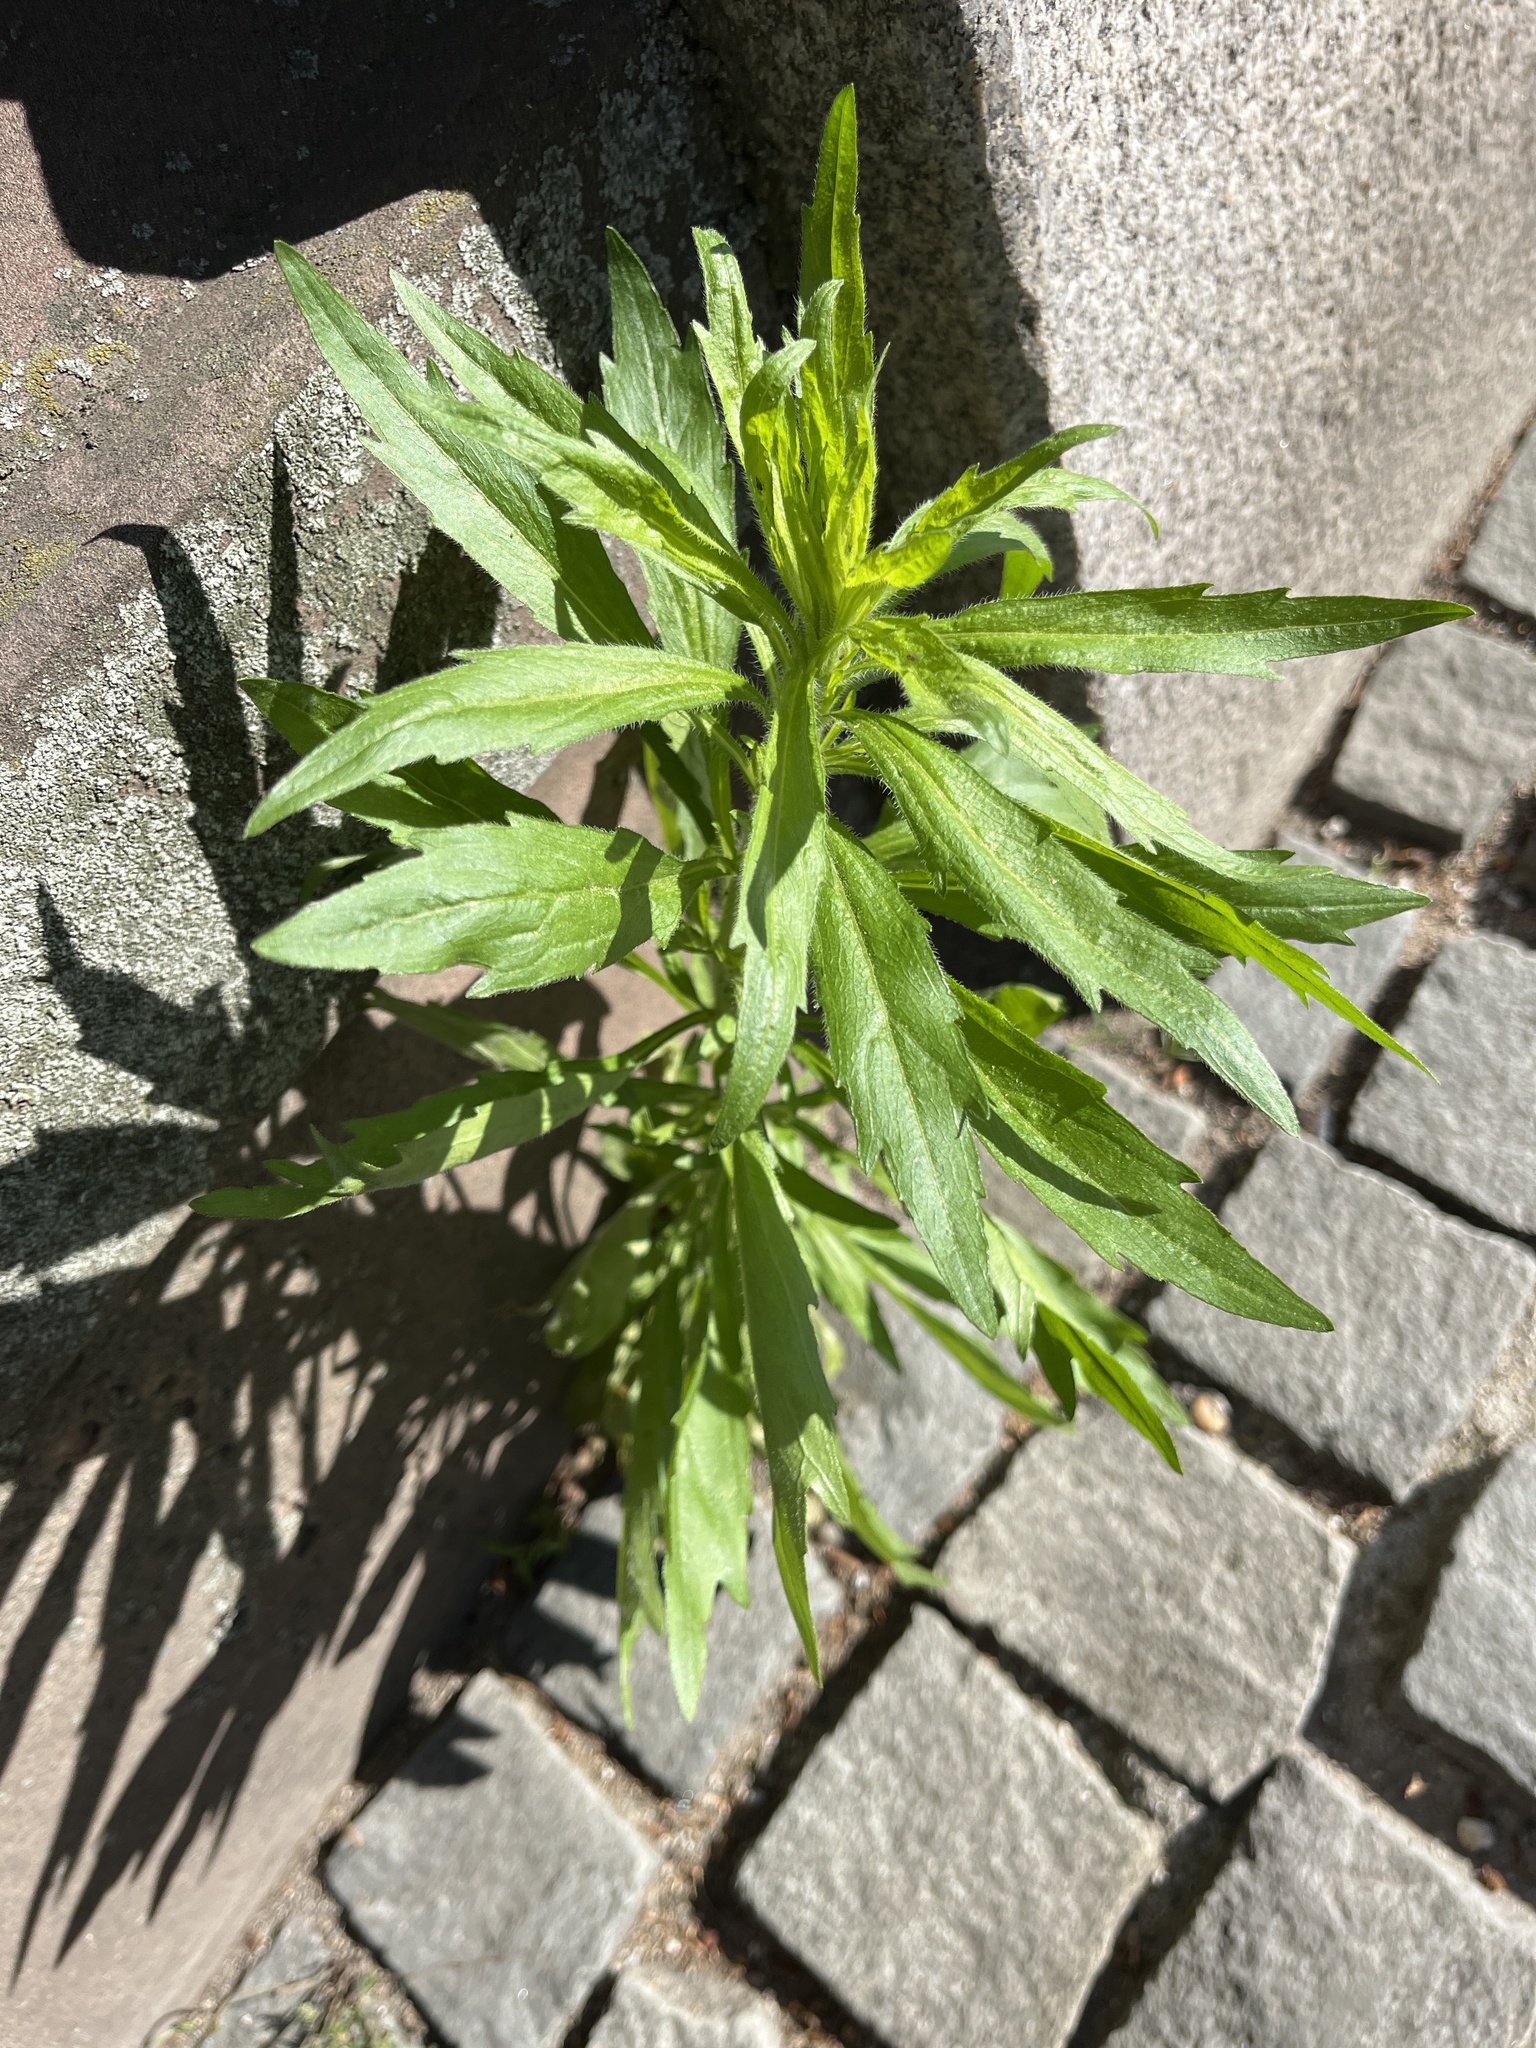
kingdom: Plantae
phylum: Tracheophyta
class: Magnoliopsida
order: Asterales
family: Asteraceae
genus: Erigeron
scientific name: Erigeron sumatrensis
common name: Daisy
